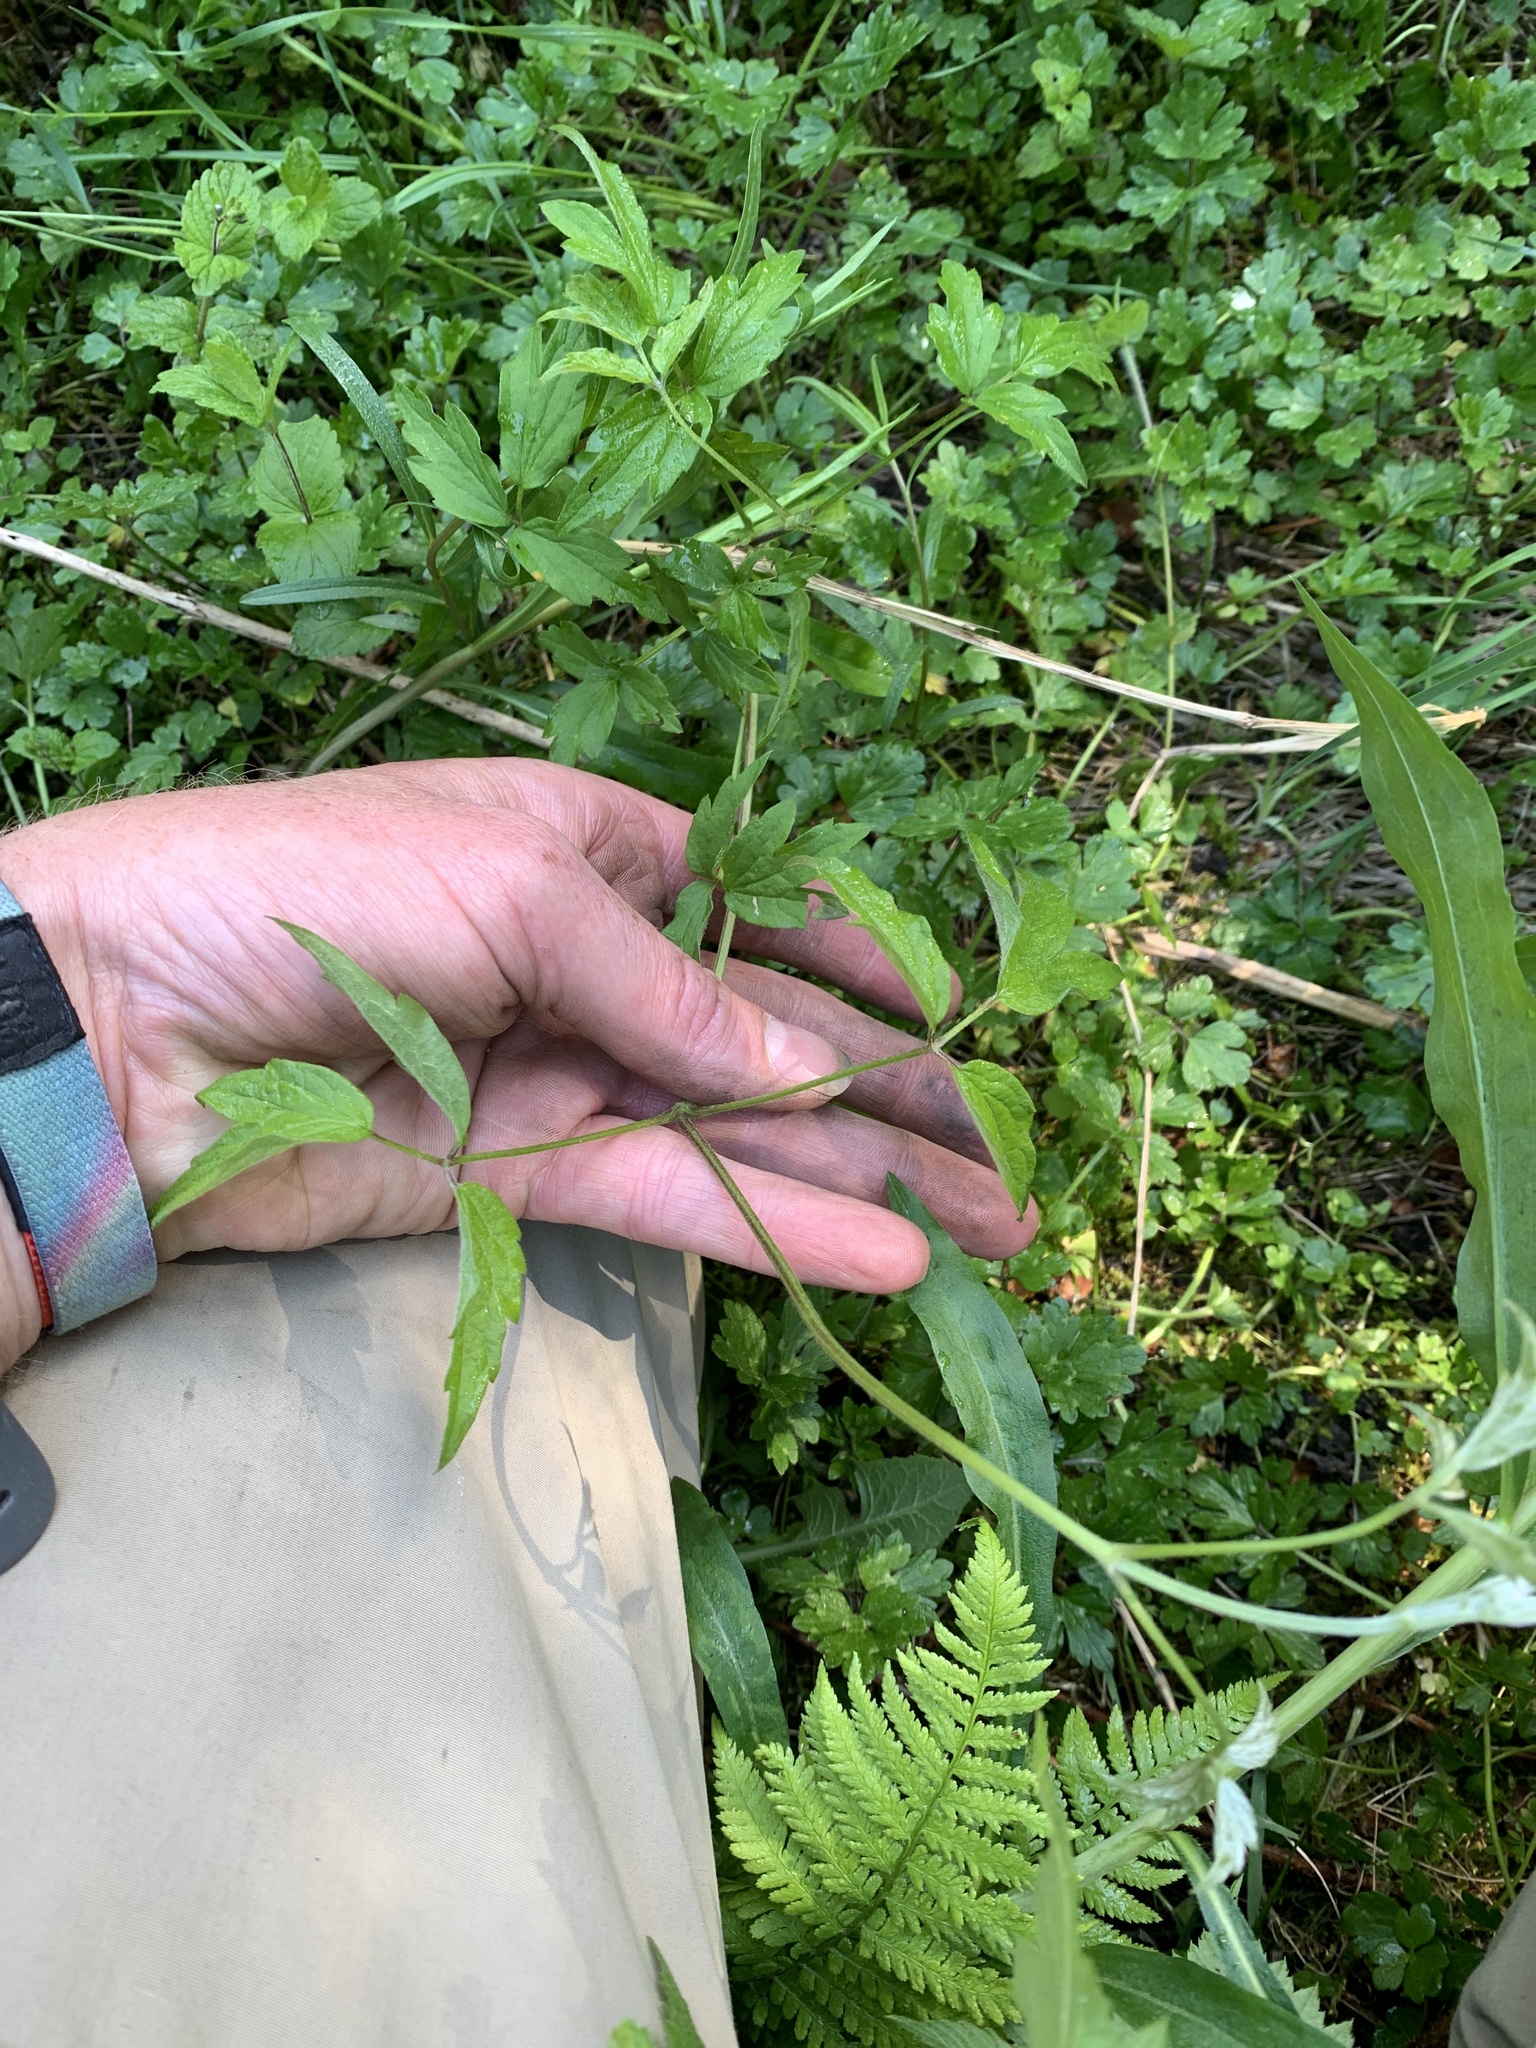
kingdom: Plantae
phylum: Tracheophyta
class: Magnoliopsida
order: Ranunculales
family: Ranunculaceae
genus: Clematis
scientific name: Clematis virginiana
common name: Virgin's-bower
